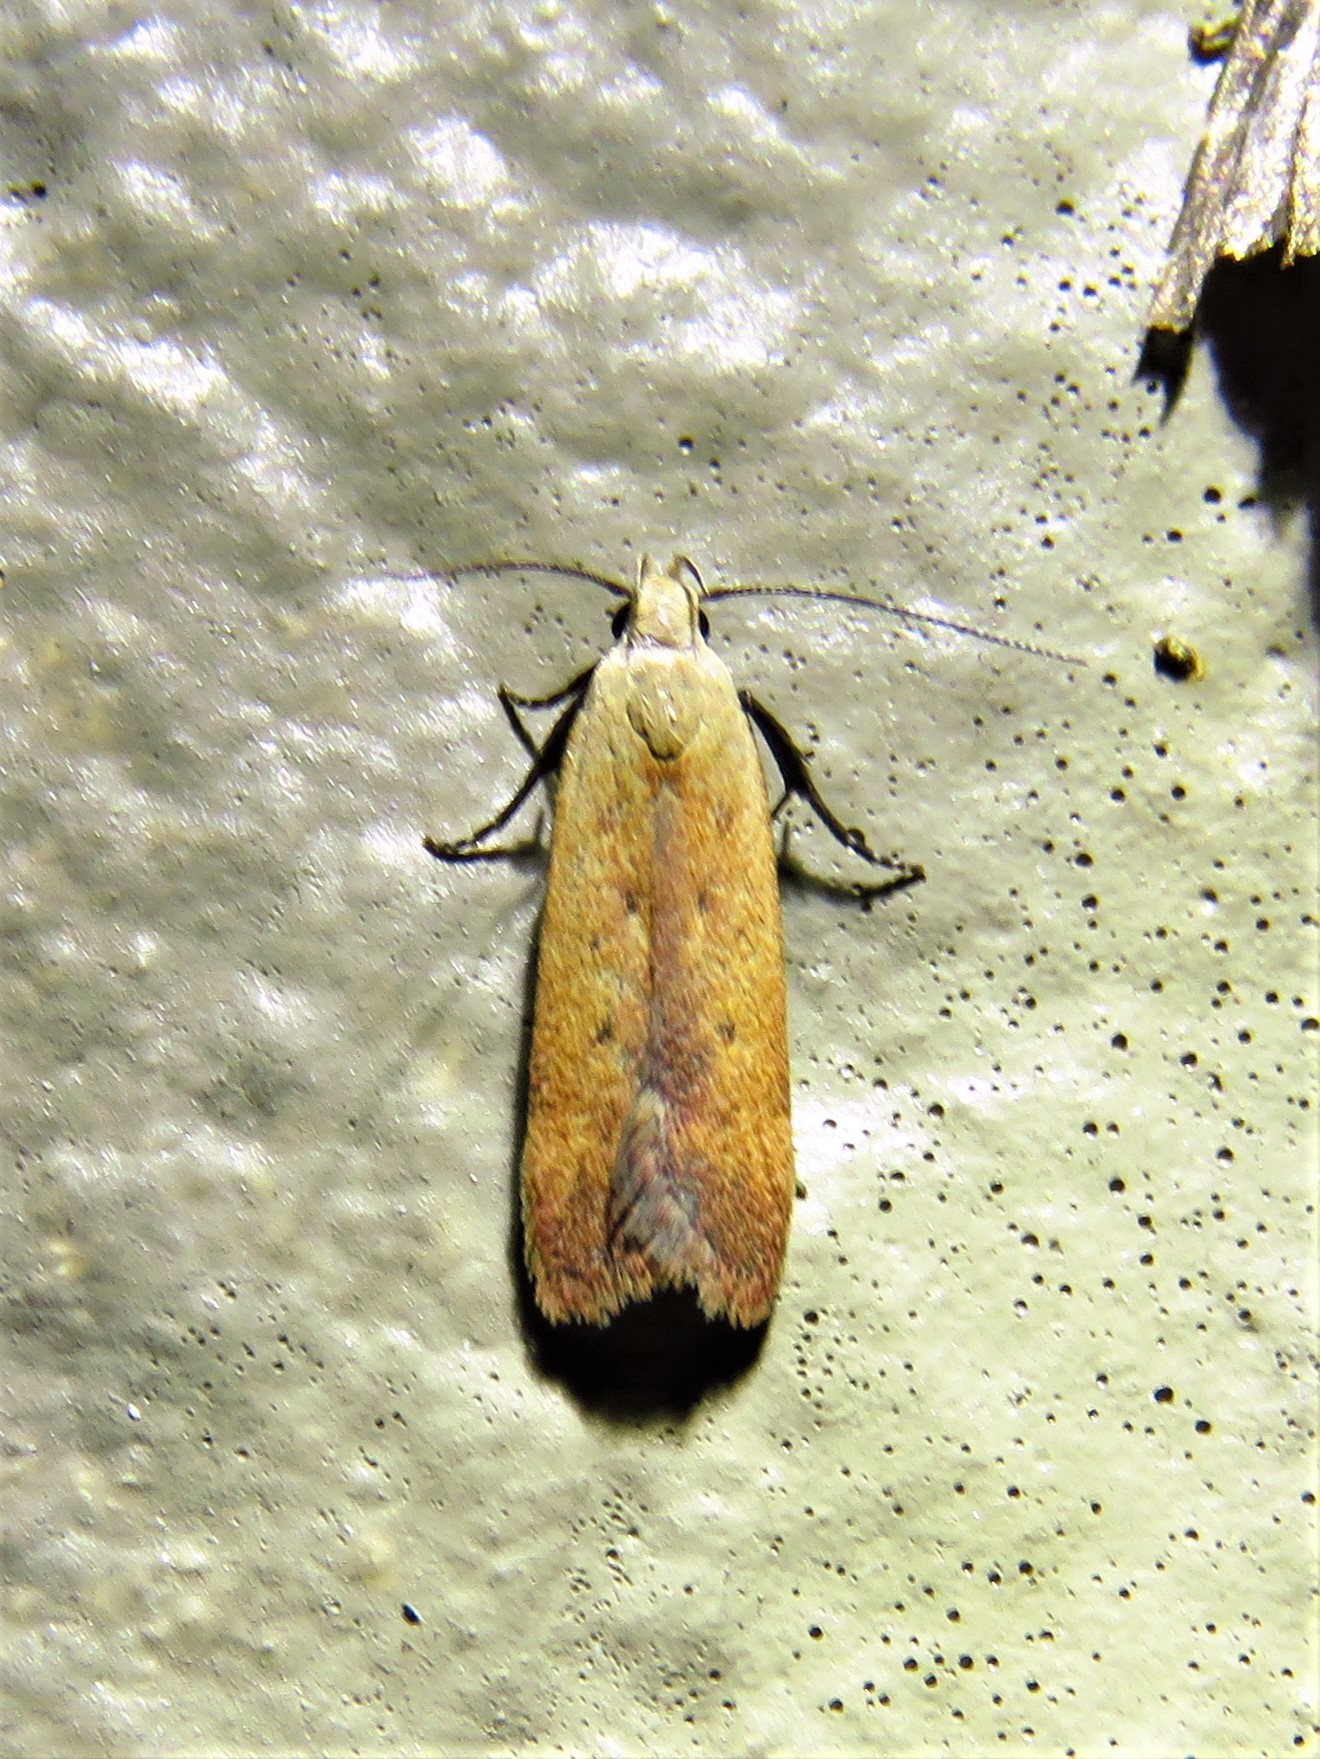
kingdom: Animalia
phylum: Arthropoda
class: Insecta
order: Lepidoptera
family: Gelechiidae
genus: Anacampsis
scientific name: Anacampsis fullonella
